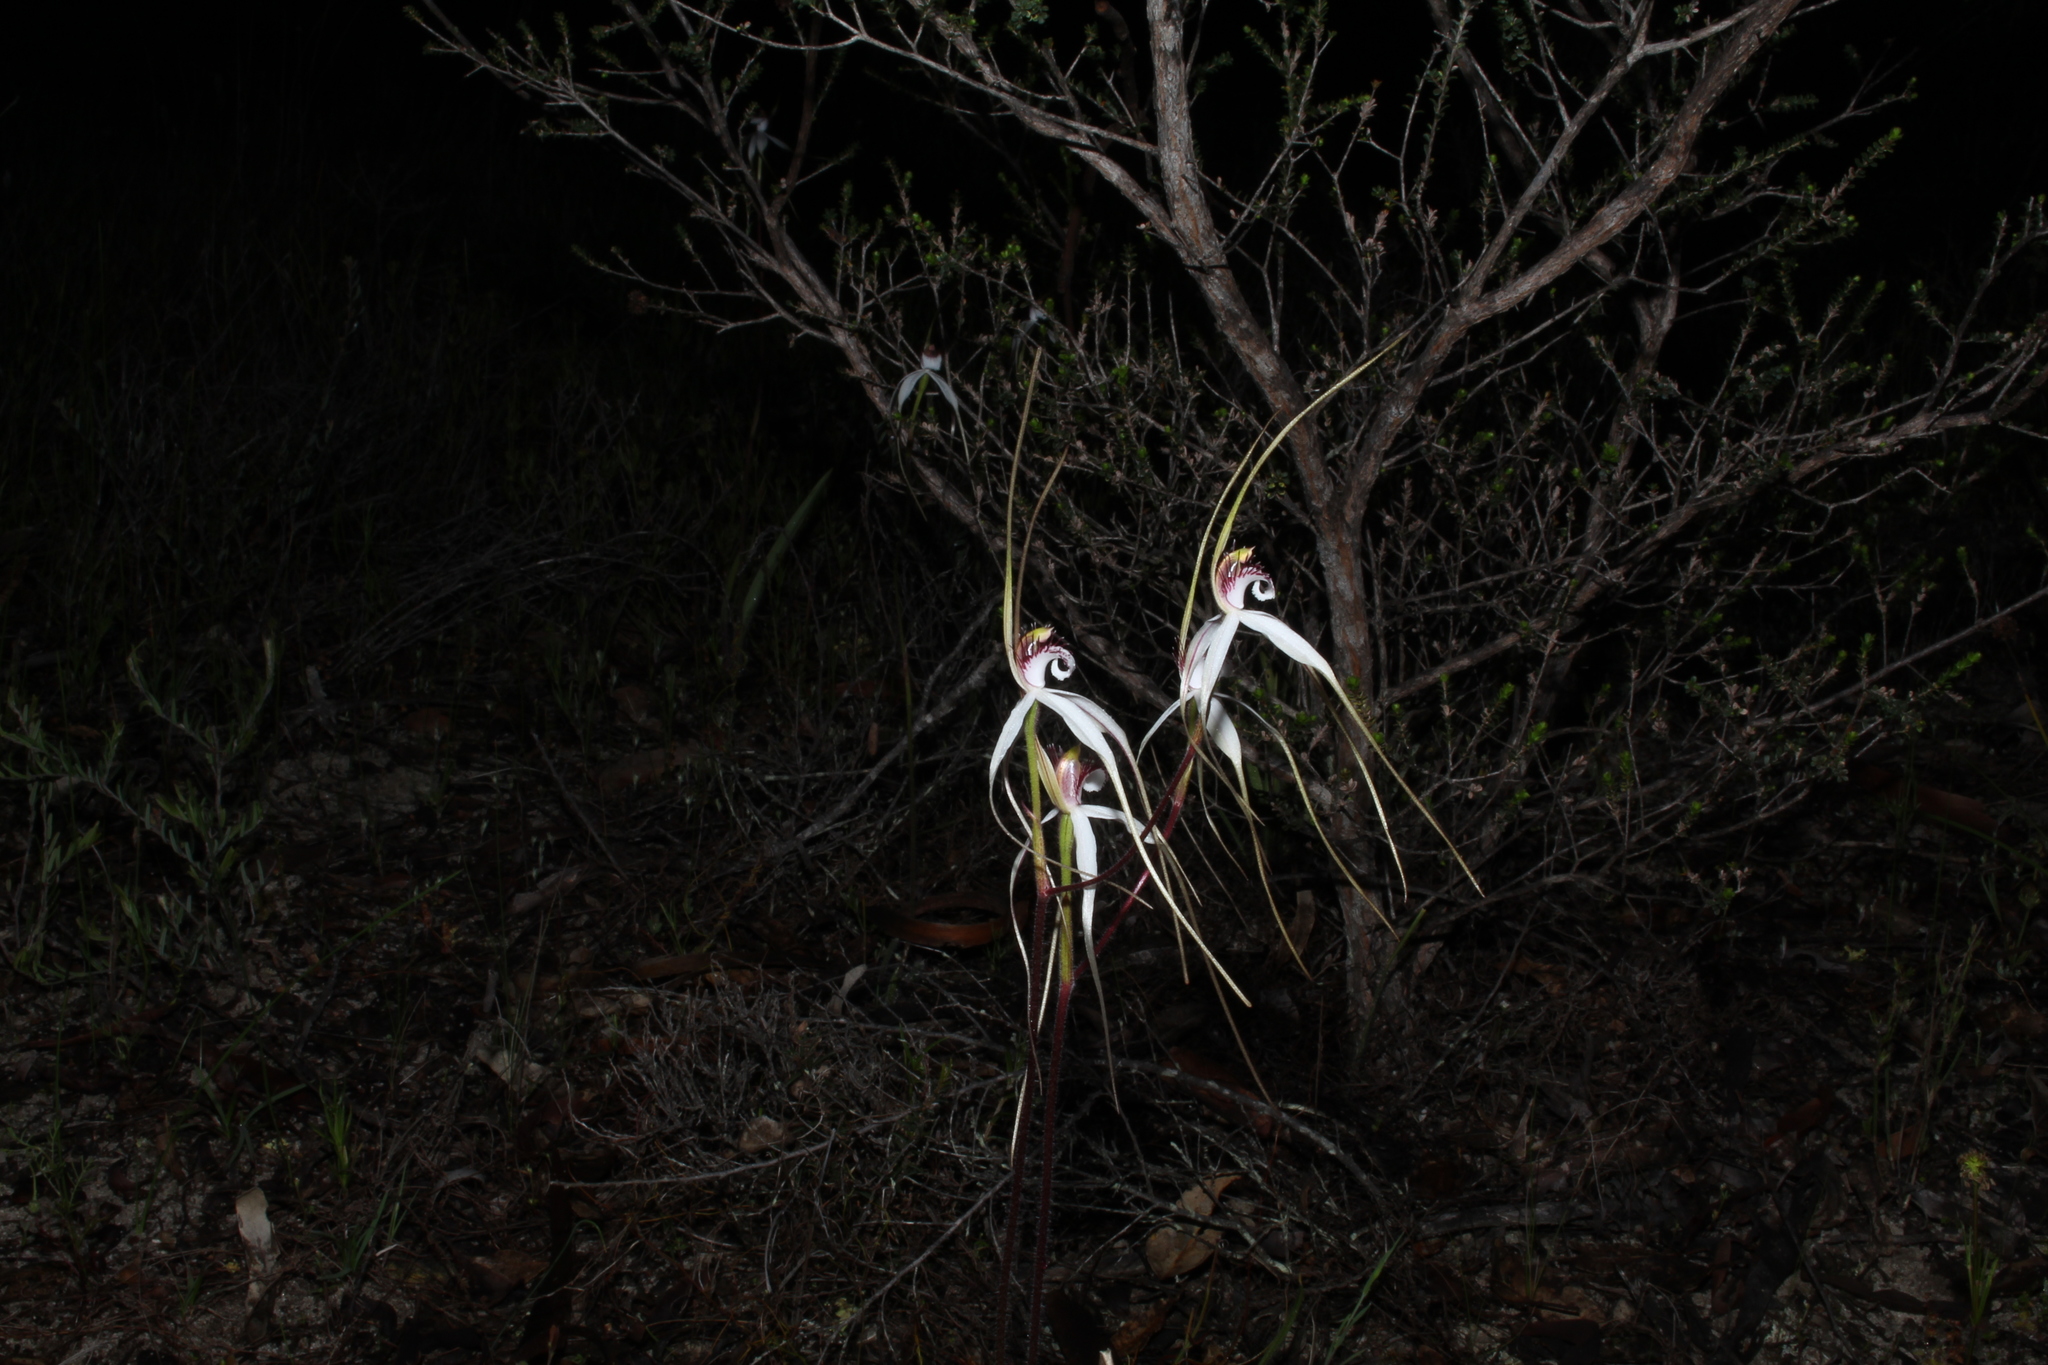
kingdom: Plantae
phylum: Tracheophyta
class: Liliopsida
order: Asparagales
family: Orchidaceae
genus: Caladenia
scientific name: Caladenia longicauda
